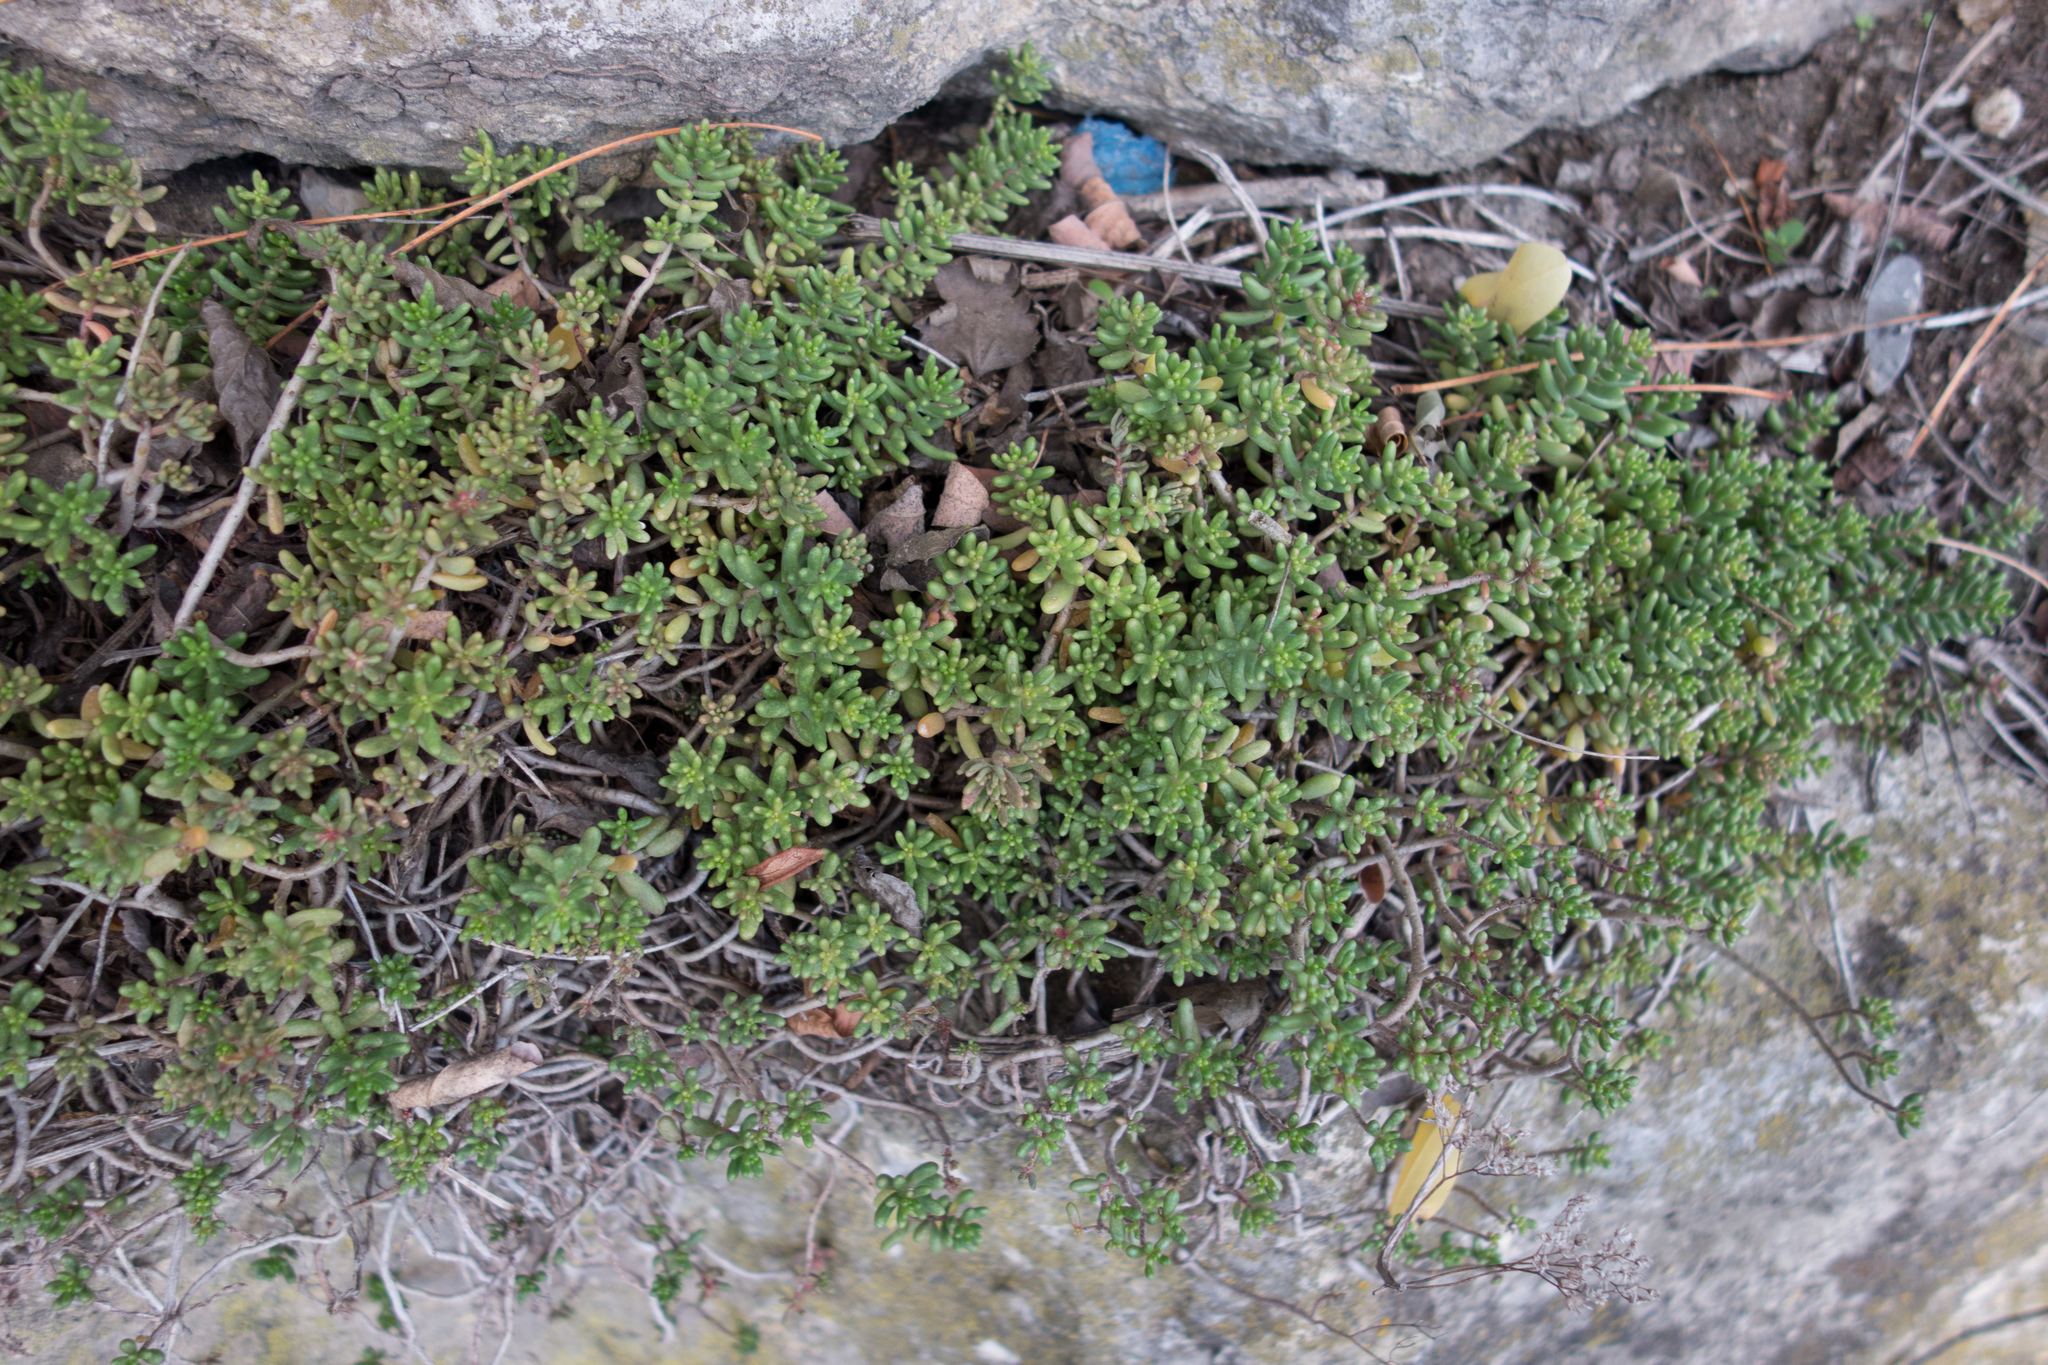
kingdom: Plantae
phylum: Tracheophyta
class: Magnoliopsida
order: Saxifragales
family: Crassulaceae
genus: Sedum
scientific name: Sedum album
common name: White stonecrop
